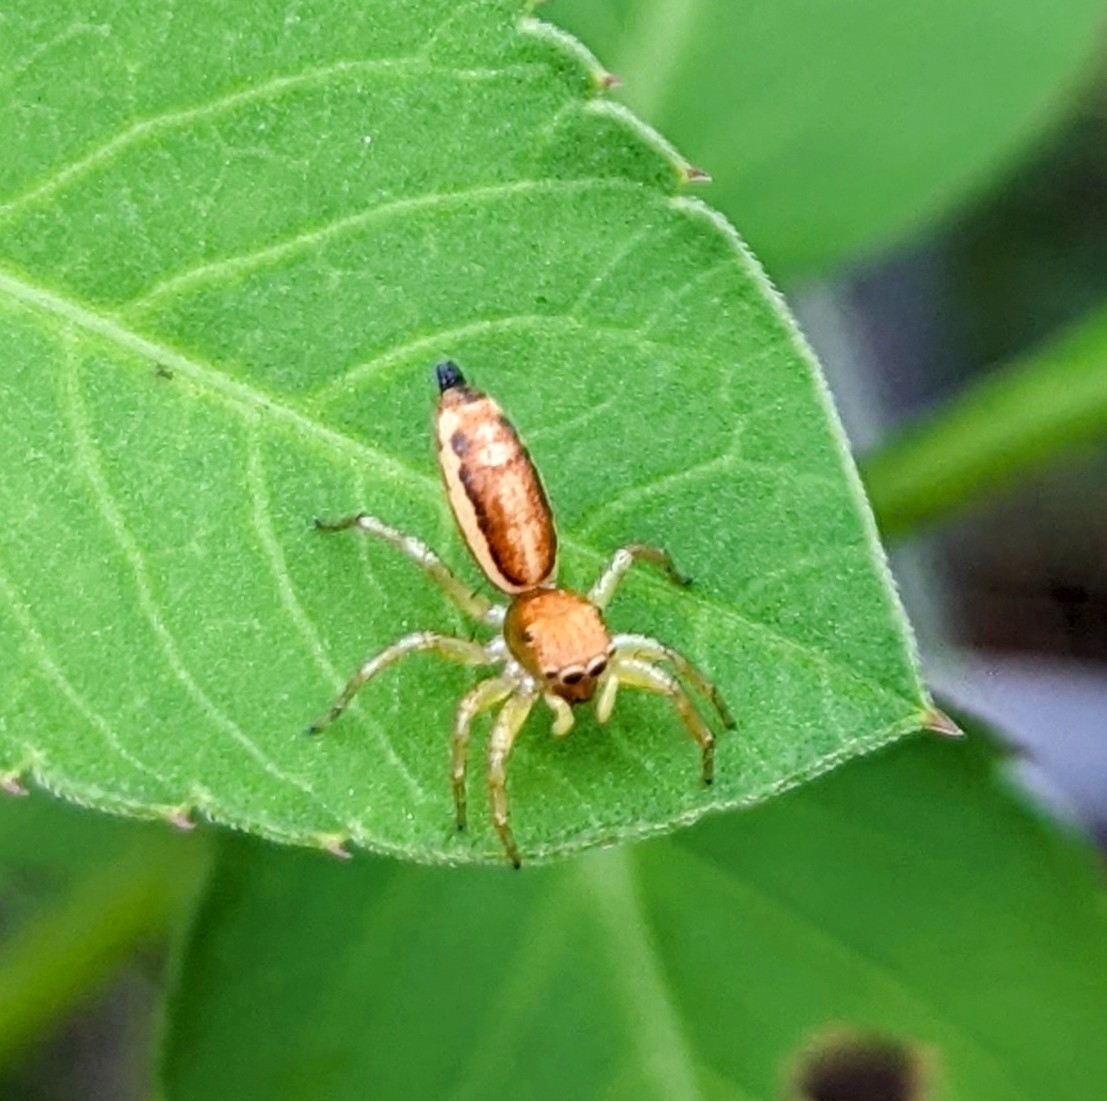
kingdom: Animalia
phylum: Arthropoda
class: Arachnida
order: Araneae
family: Salticidae
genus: Cosmophasis
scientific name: Cosmophasis lami
